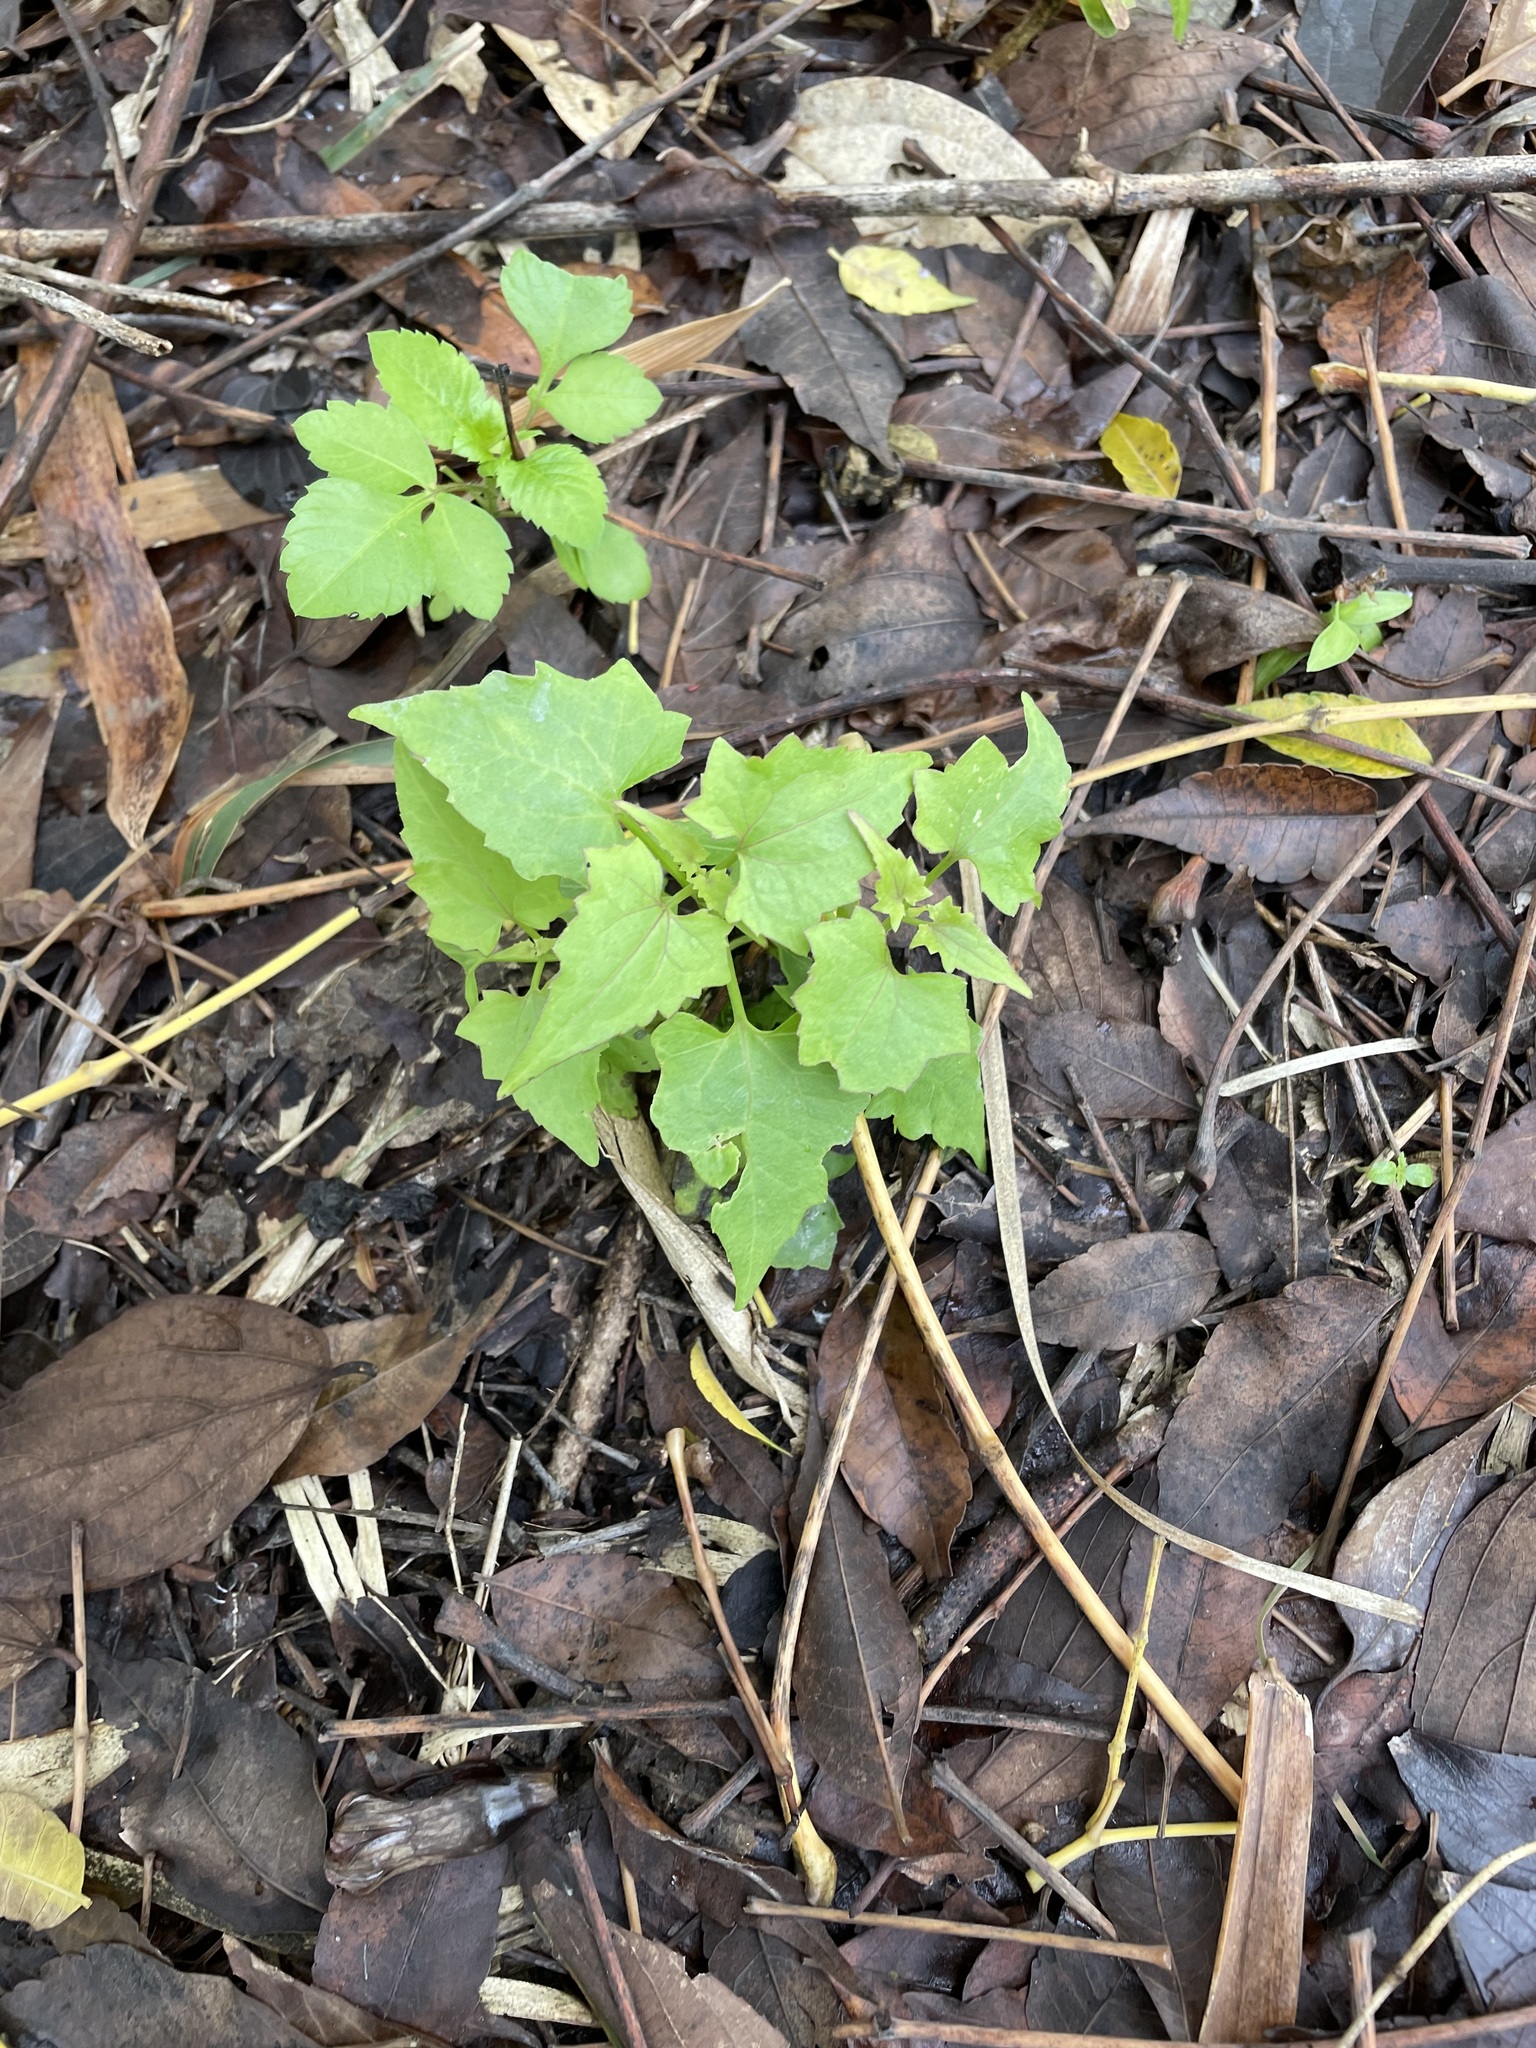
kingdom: Plantae
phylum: Tracheophyta
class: Magnoliopsida
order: Asterales
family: Asteraceae
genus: Mikania
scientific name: Mikania micrantha
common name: Mile-a-minute
